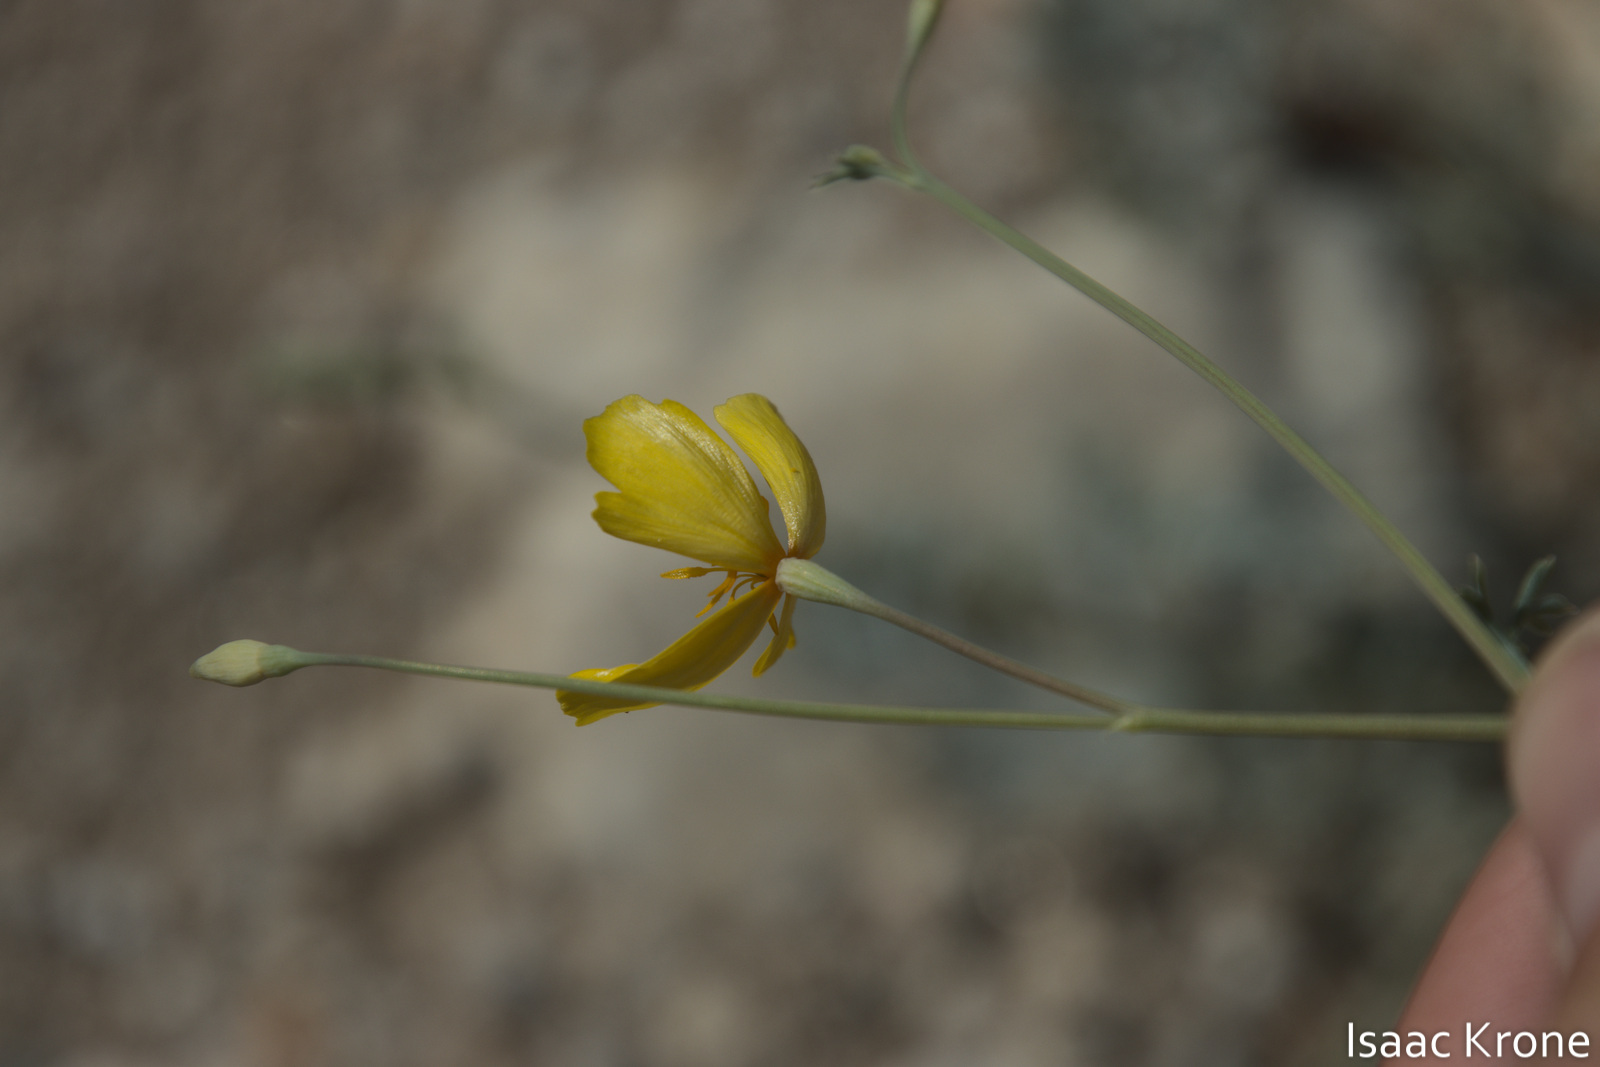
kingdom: Plantae
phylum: Tracheophyta
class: Magnoliopsida
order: Ranunculales
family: Papaveraceae
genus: Eschscholzia
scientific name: Eschscholzia minutiflora
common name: Small-flower california-poppy
